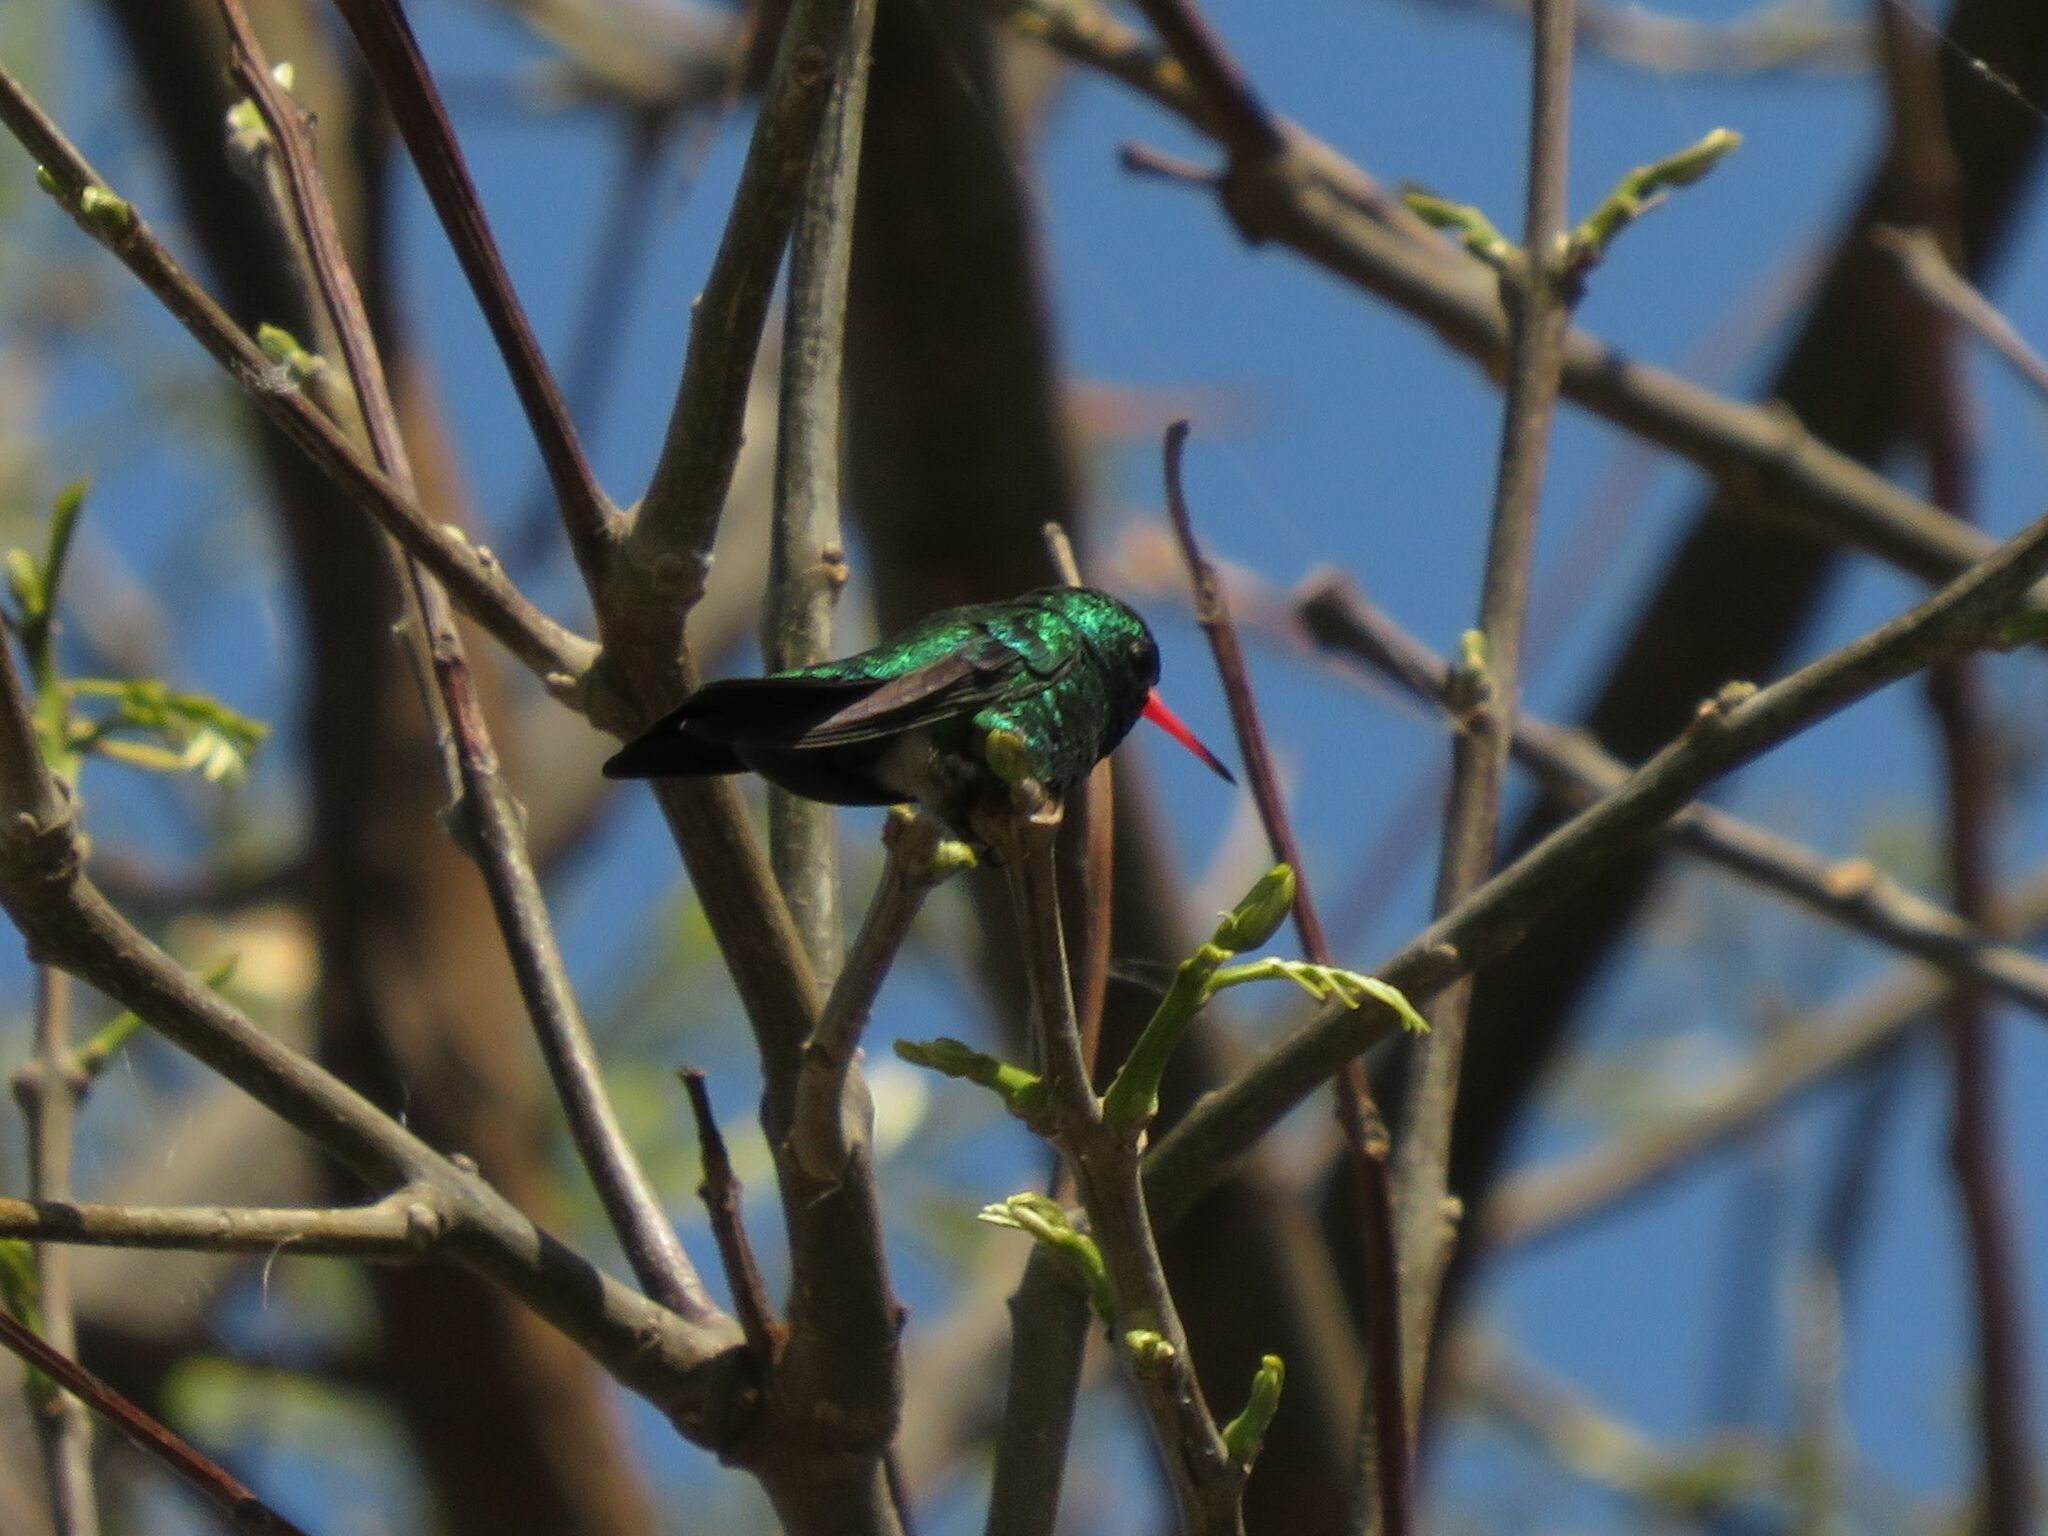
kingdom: Animalia
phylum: Chordata
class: Aves
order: Apodiformes
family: Trochilidae
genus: Chlorostilbon
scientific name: Chlorostilbon lucidus
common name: Glittering-bellied emerald
